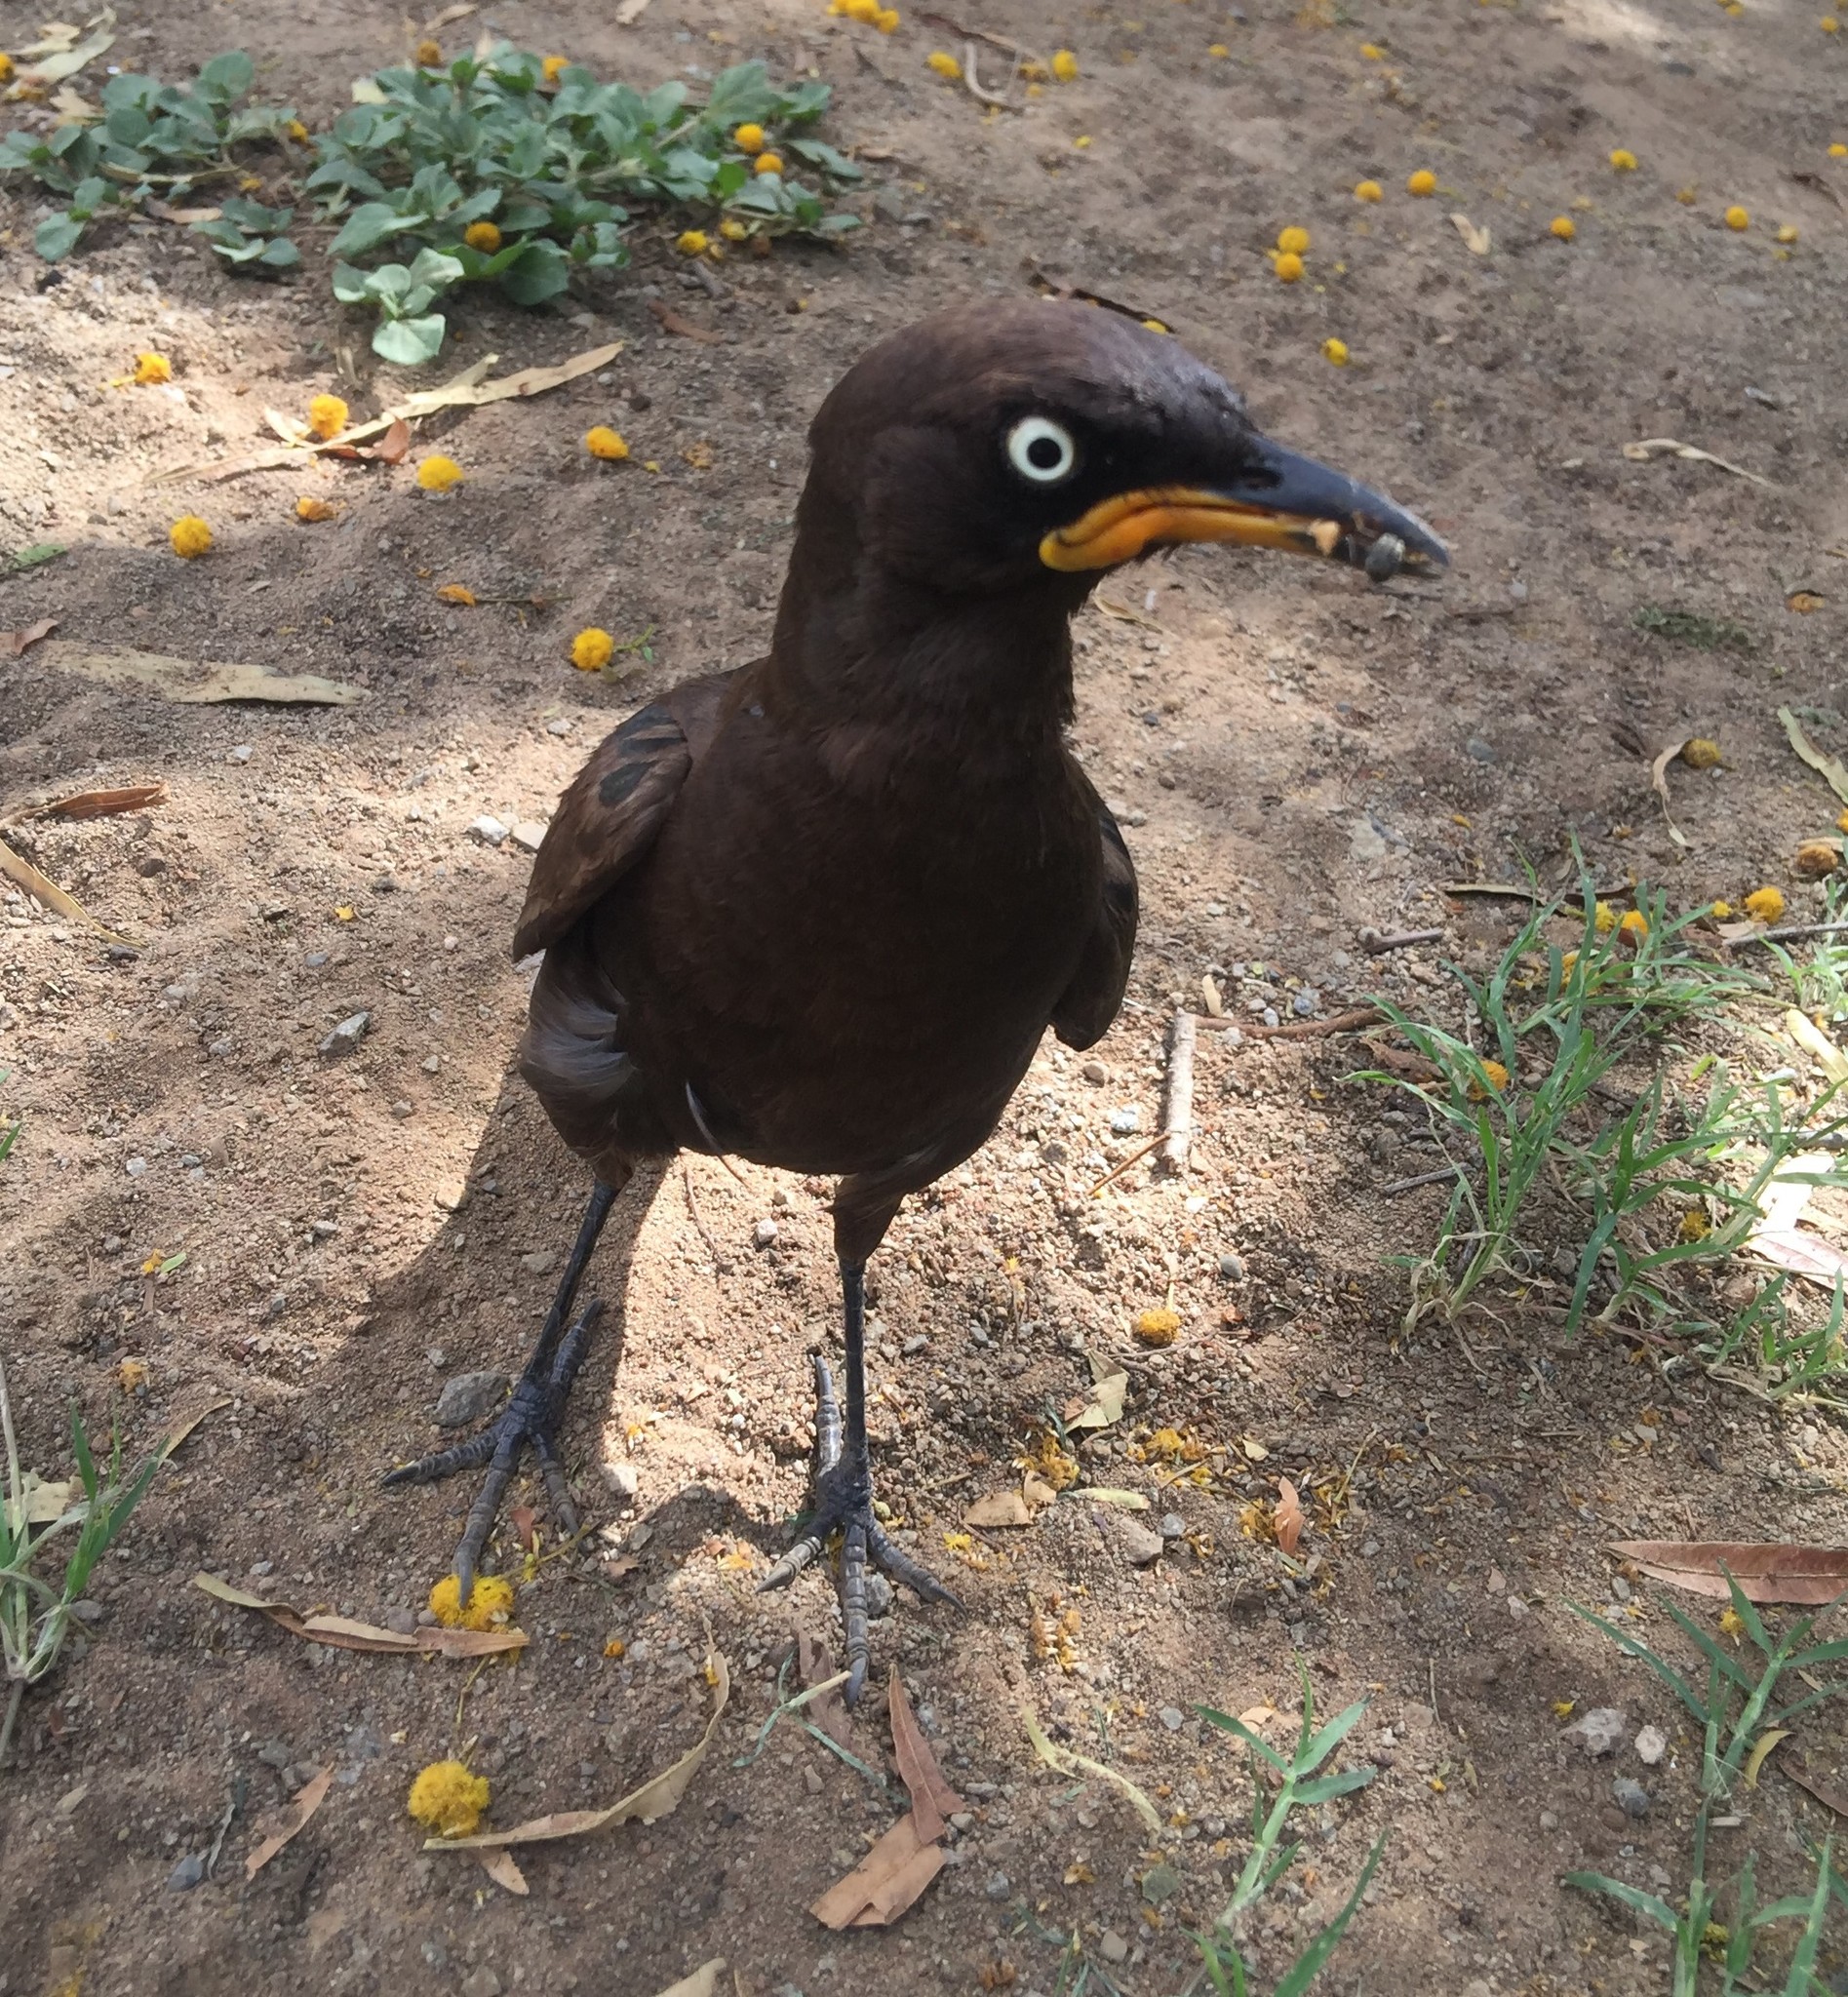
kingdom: Animalia
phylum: Chordata
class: Aves
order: Passeriformes
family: Sturnidae
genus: Lamprotornis
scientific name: Lamprotornis bicolor
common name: Pied starling
